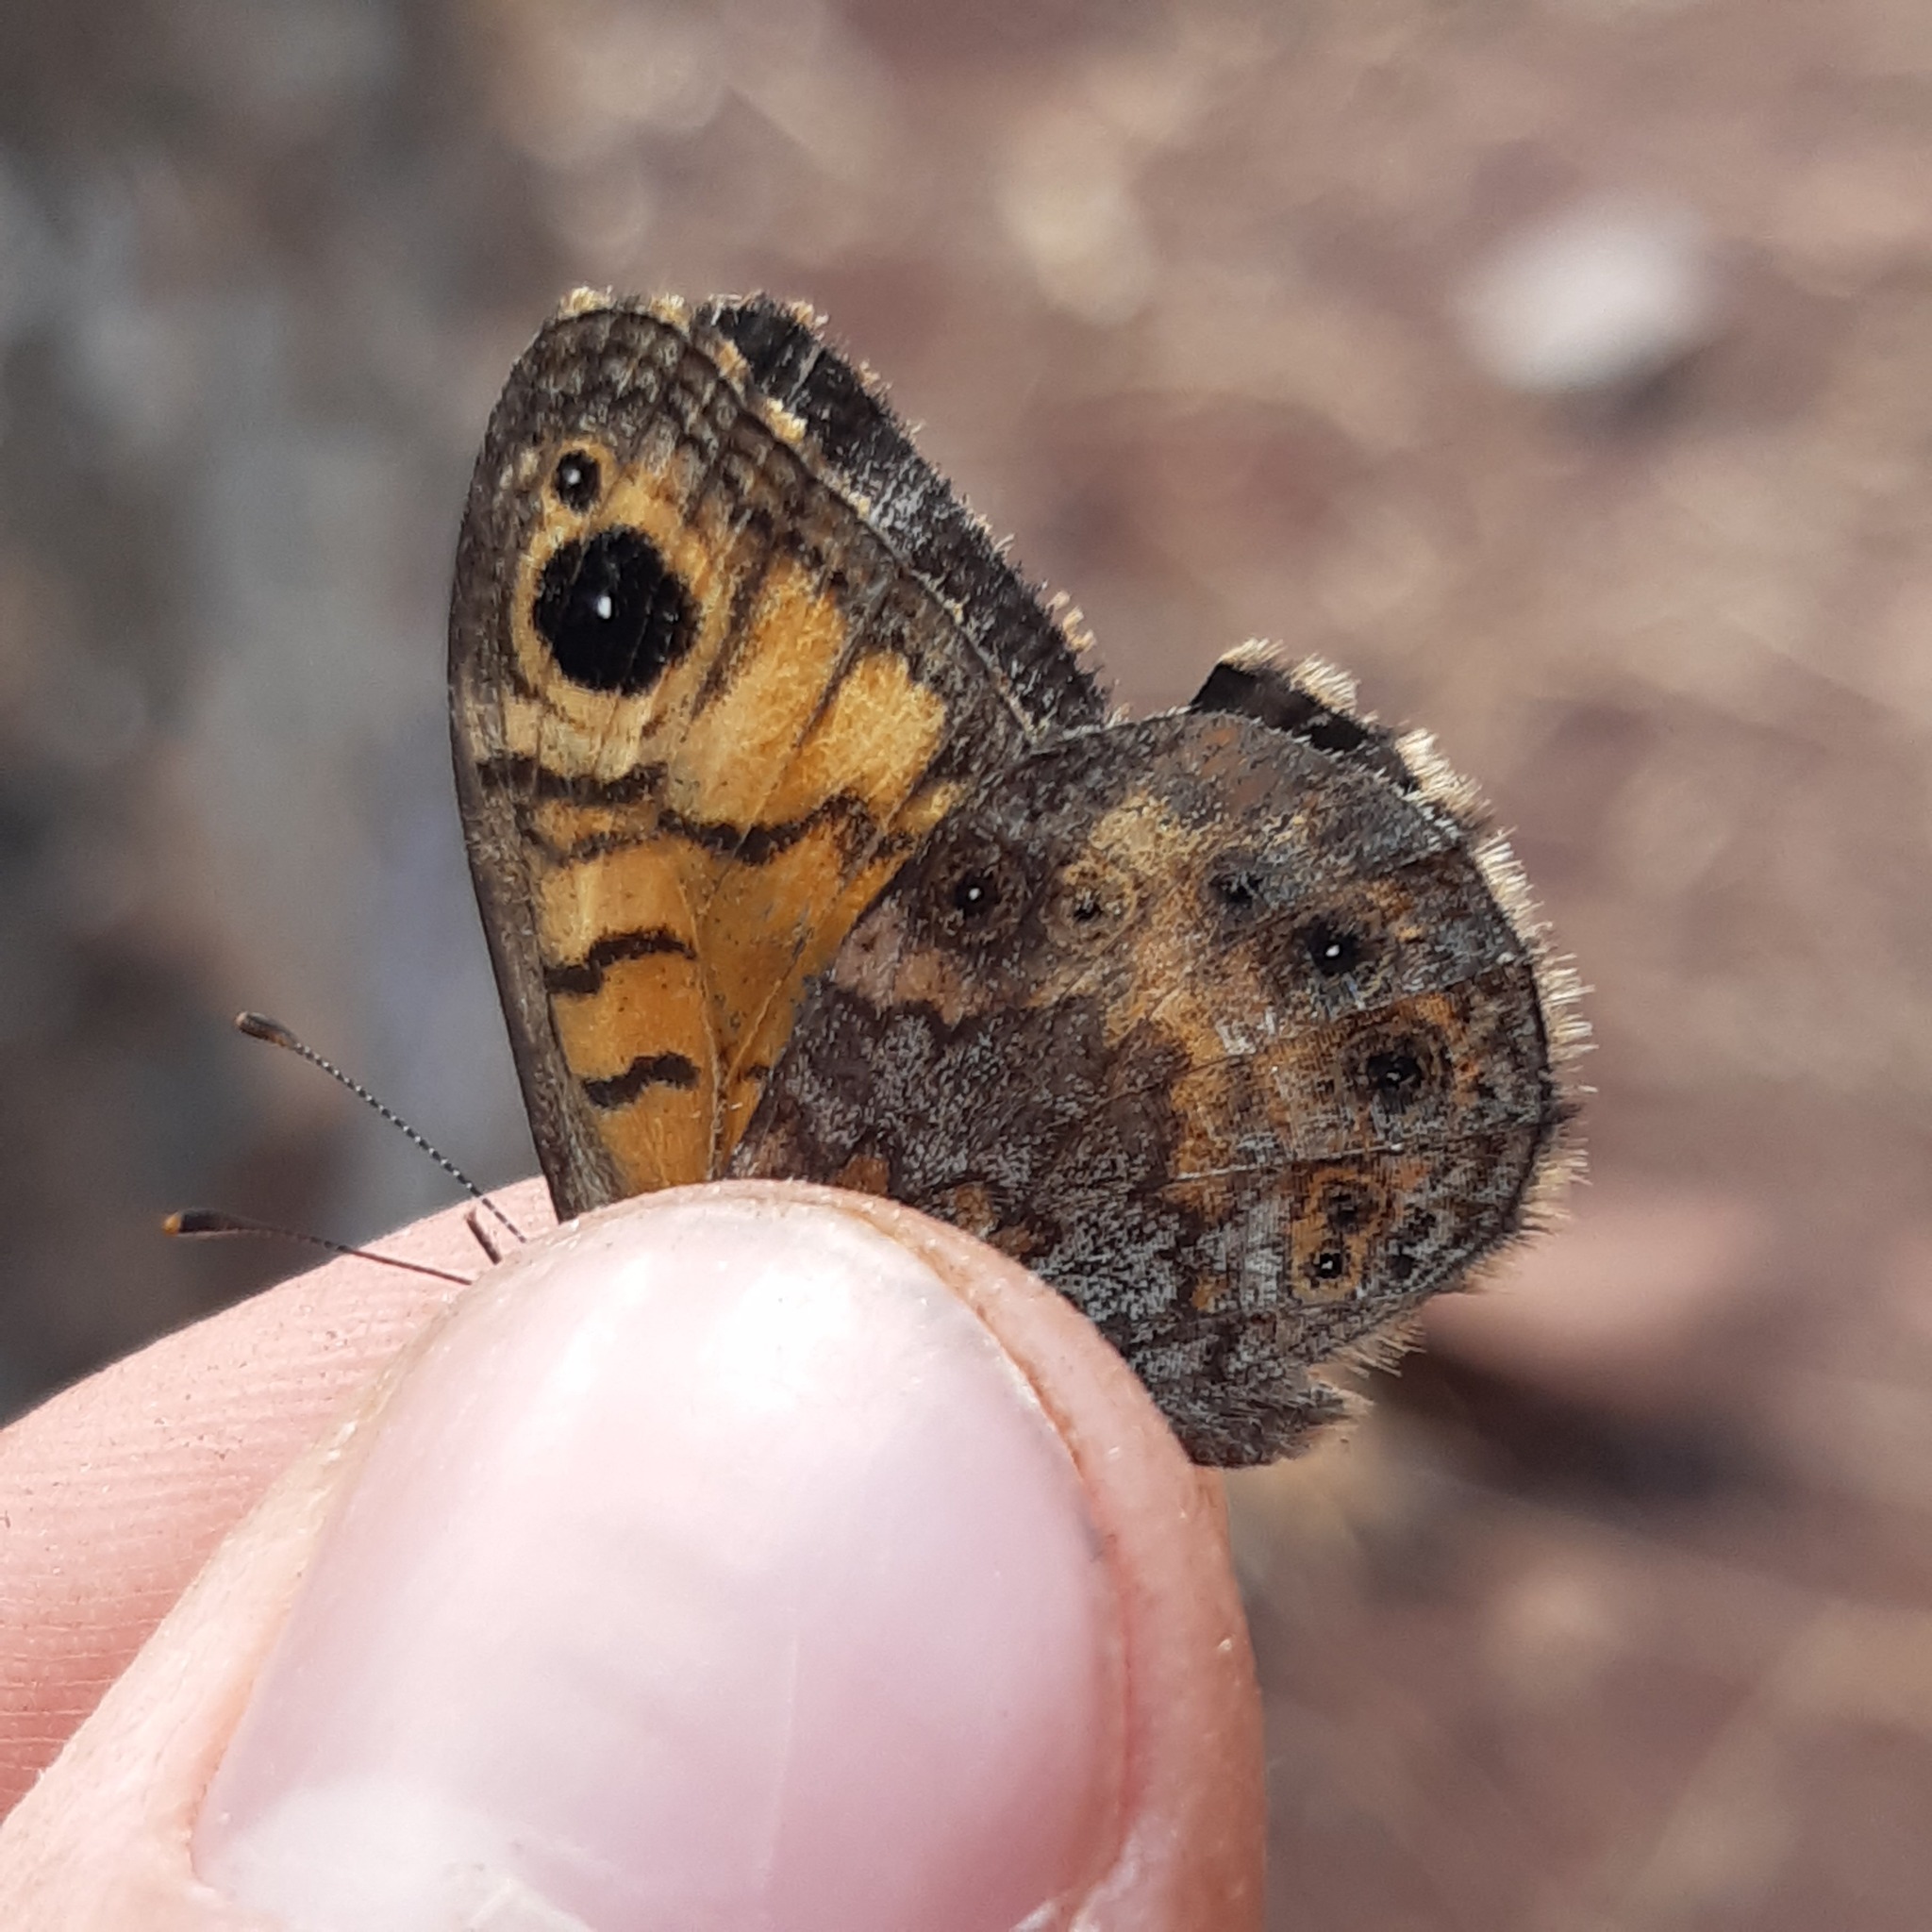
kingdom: Animalia
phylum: Arthropoda
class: Insecta
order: Lepidoptera
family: Nymphalidae
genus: Pararge
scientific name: Pararge Lasiommata megera
